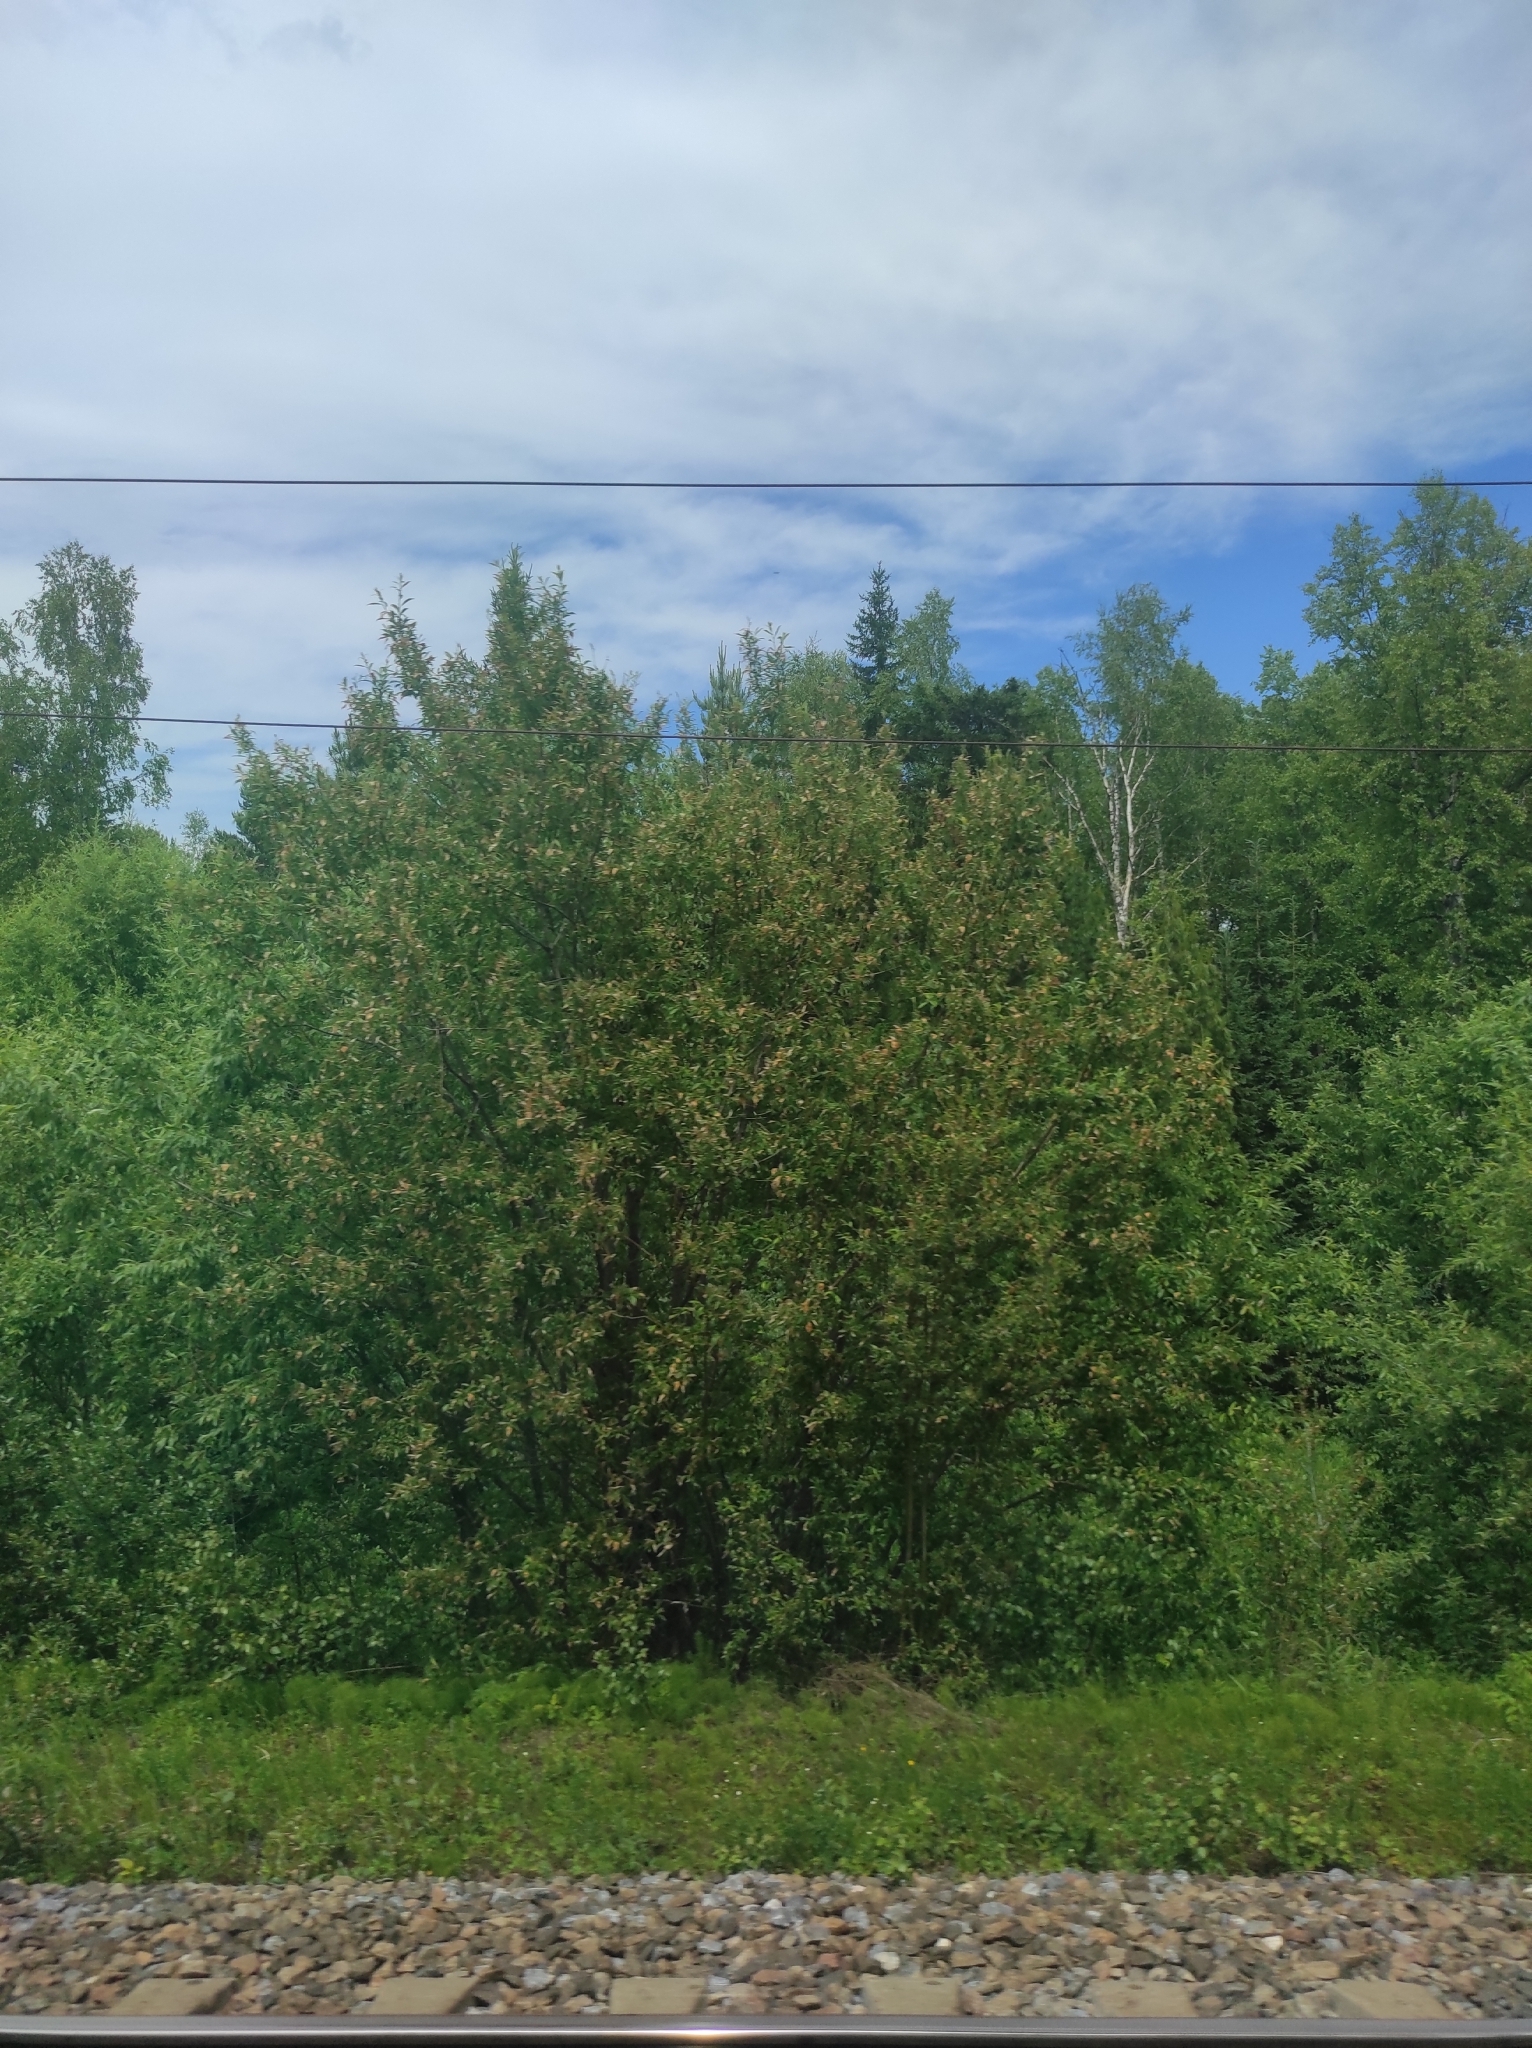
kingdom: Plantae
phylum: Tracheophyta
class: Pinopsida
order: Pinales
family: Pinaceae
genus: Picea
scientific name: Picea obovata
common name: Siberian spruce
